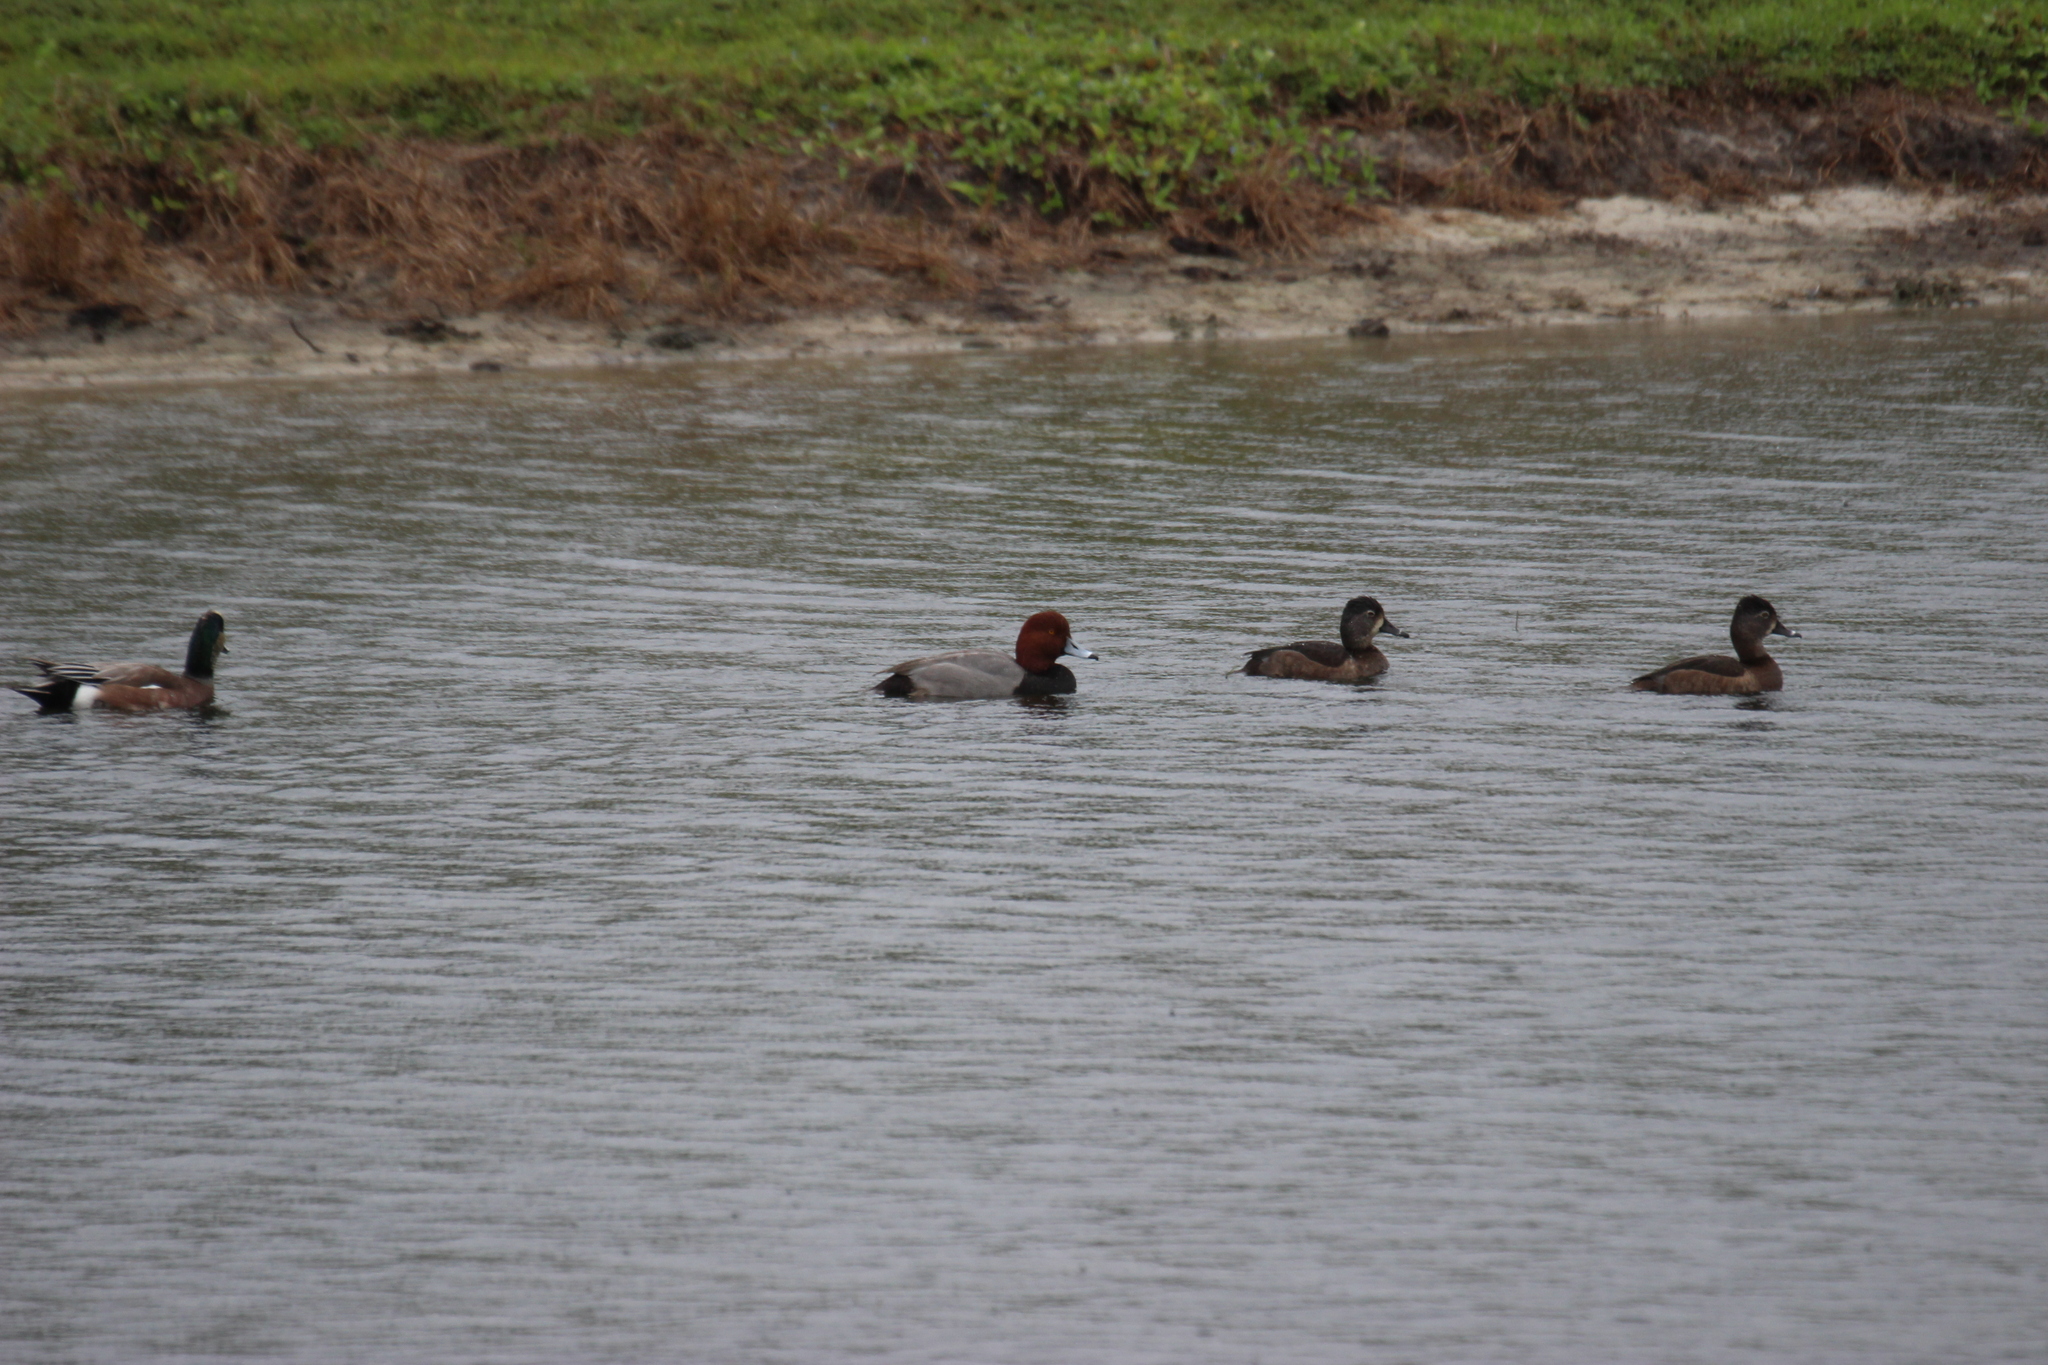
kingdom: Animalia
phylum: Chordata
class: Aves
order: Anseriformes
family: Anatidae
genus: Aythya
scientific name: Aythya americana
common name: Redhead
